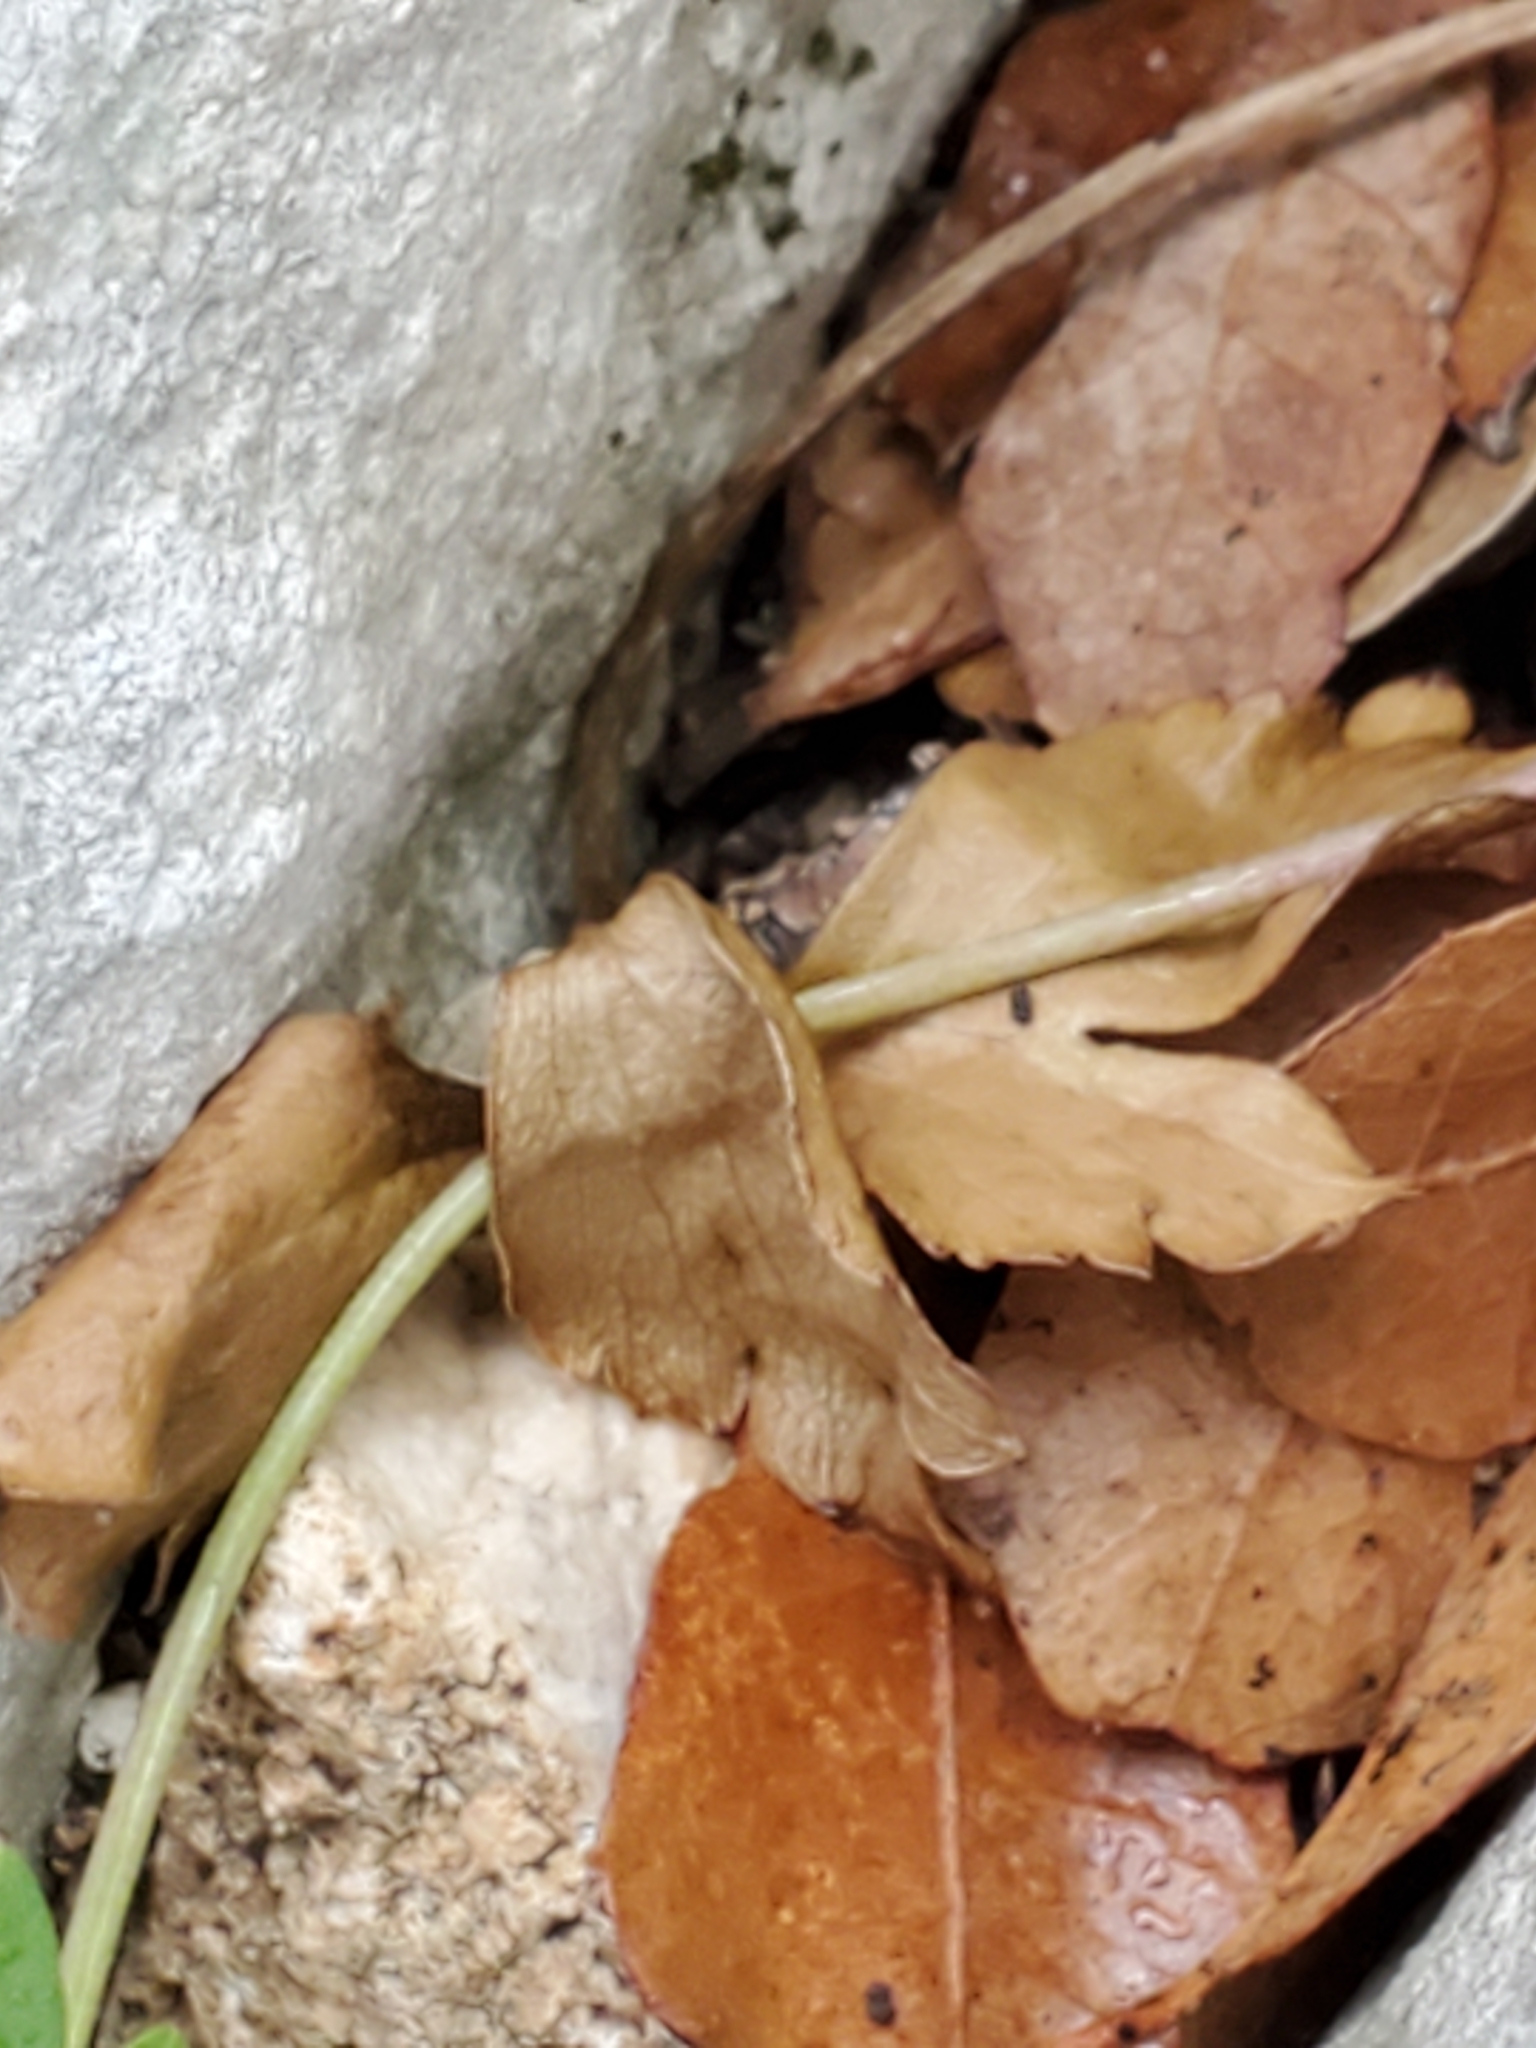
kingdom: Plantae
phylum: Tracheophyta
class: Magnoliopsida
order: Ranunculales
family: Ranunculaceae
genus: Anemone
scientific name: Anemone edwardsiana
